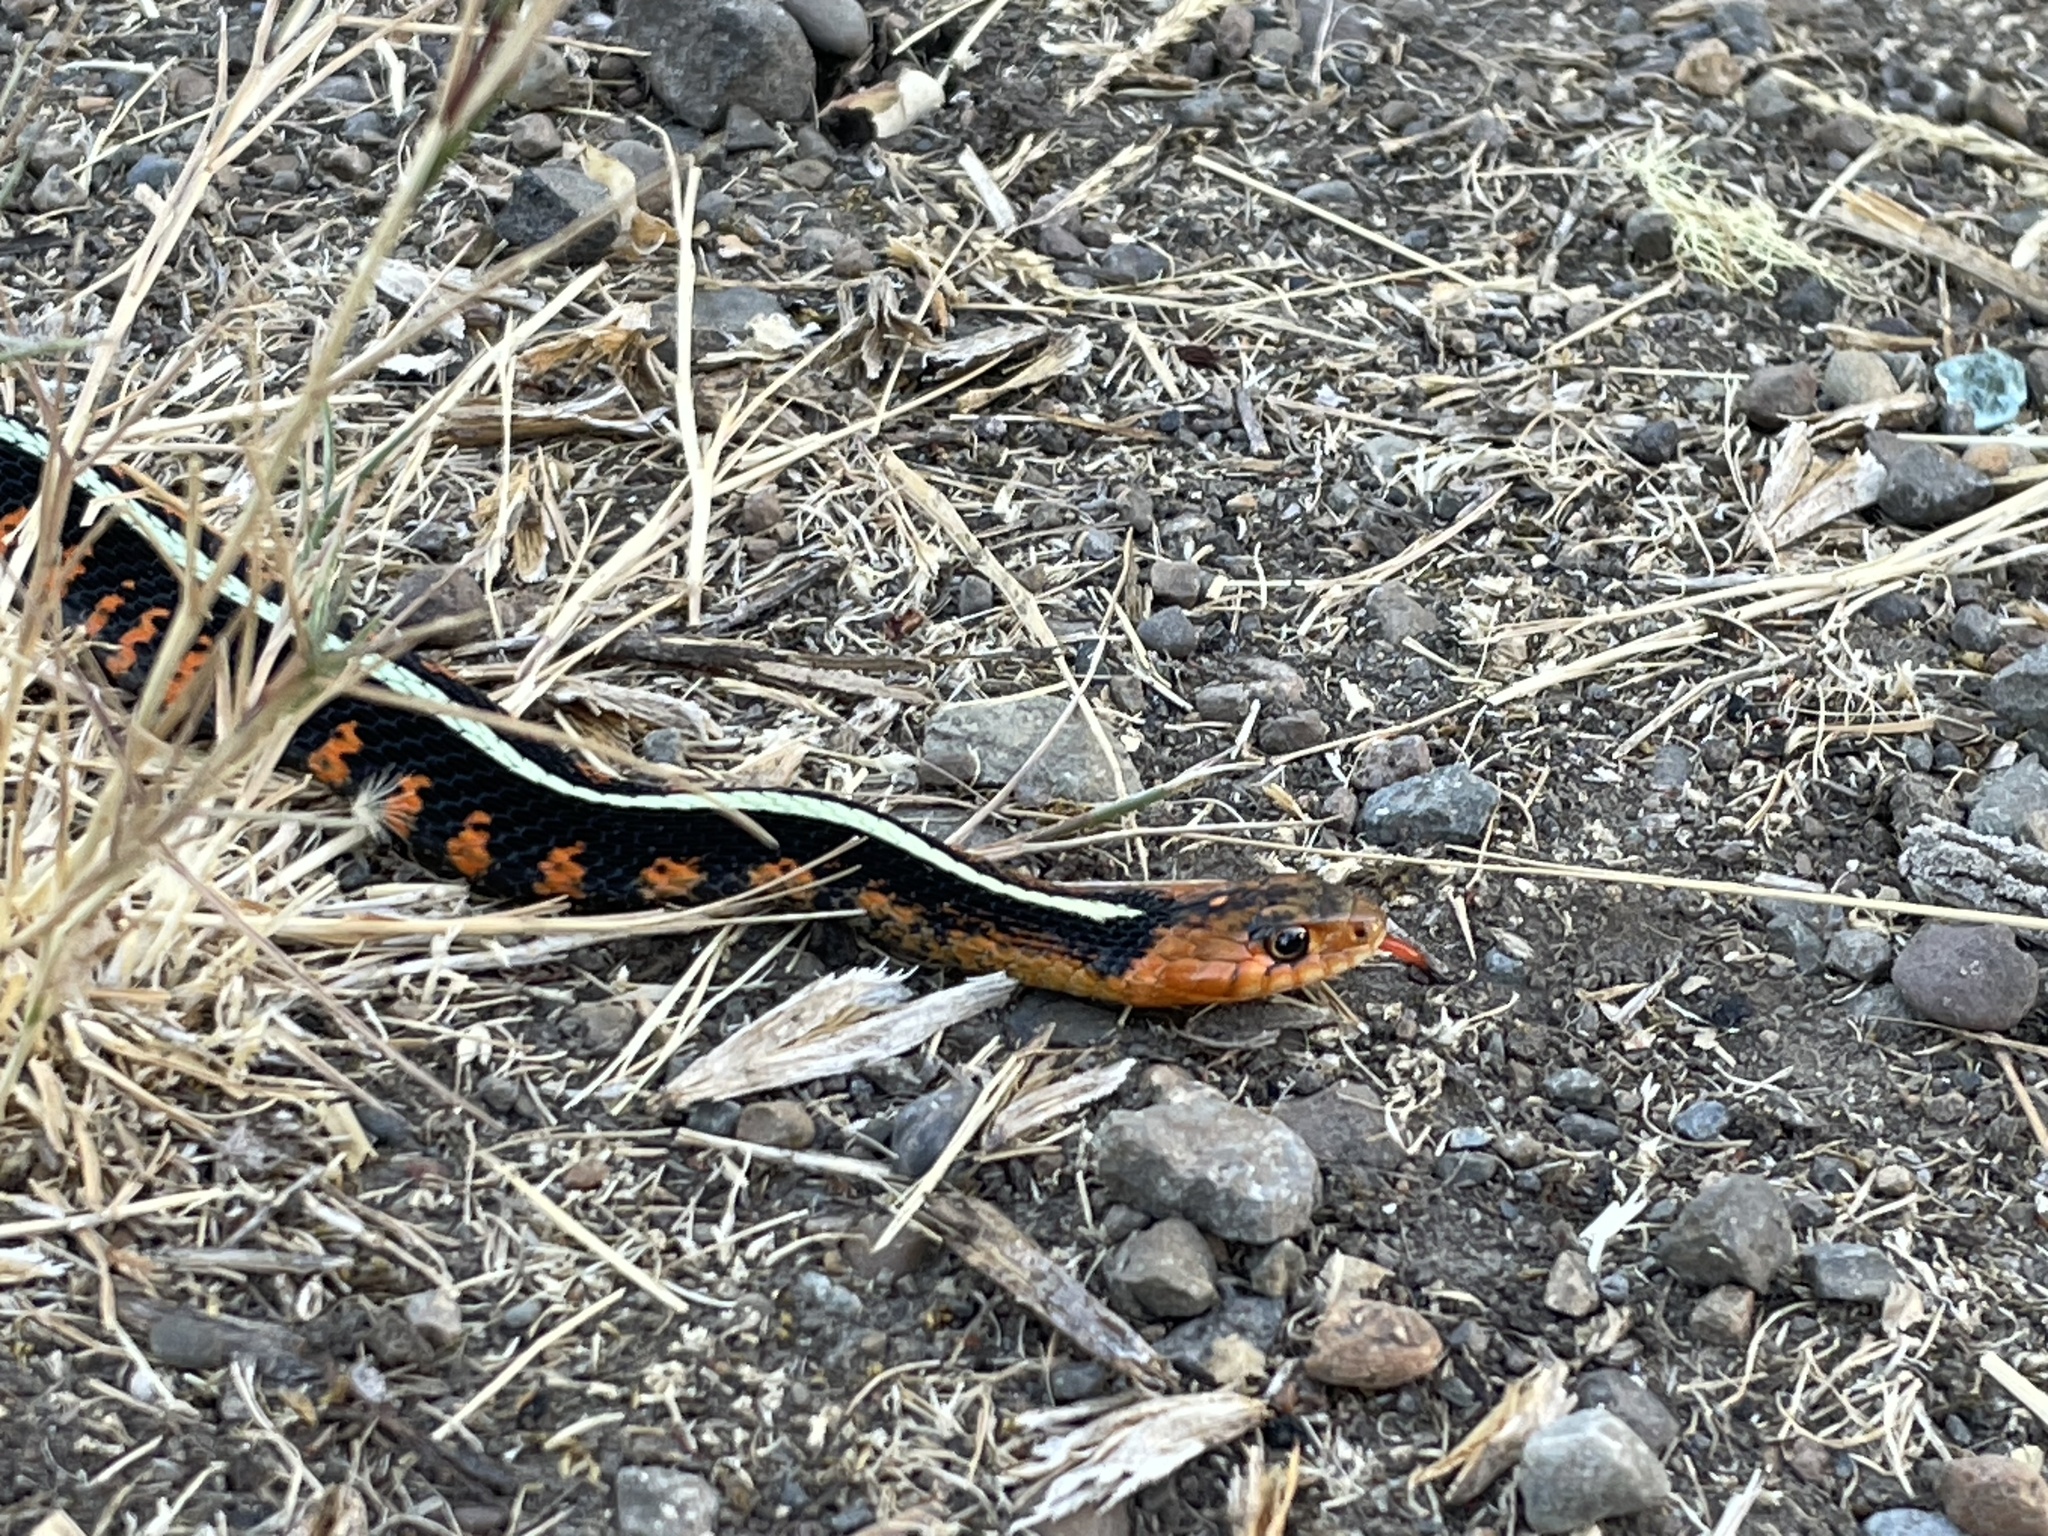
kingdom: Animalia
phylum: Chordata
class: Squamata
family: Colubridae
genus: Thamnophis
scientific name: Thamnophis sirtalis
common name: Common garter snake
